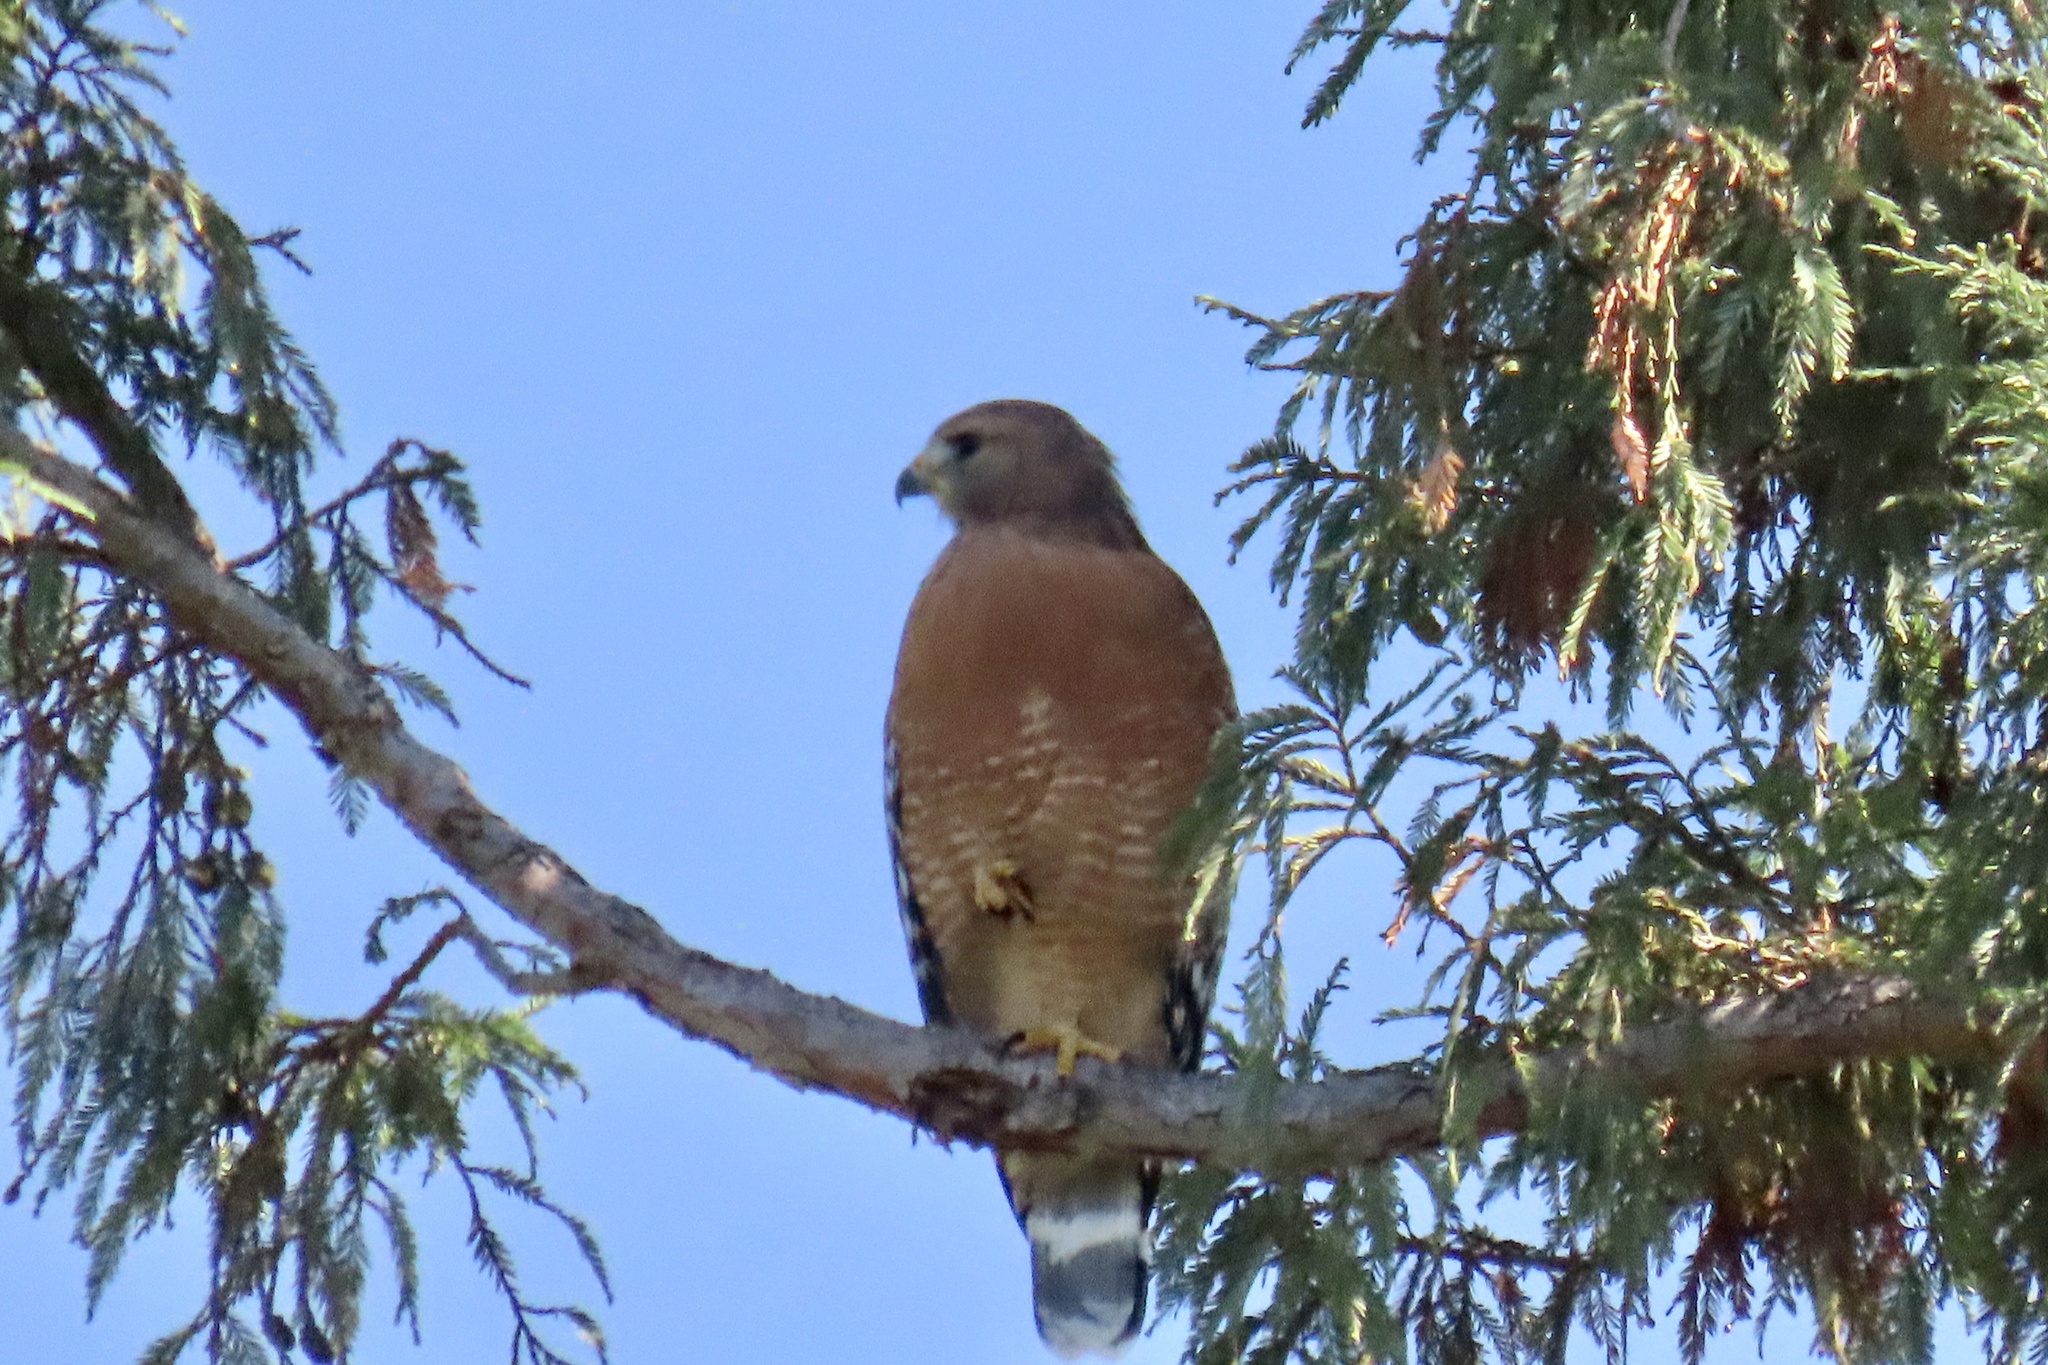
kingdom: Animalia
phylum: Chordata
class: Aves
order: Accipitriformes
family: Accipitridae
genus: Buteo
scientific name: Buteo lineatus
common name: Red-shouldered hawk
